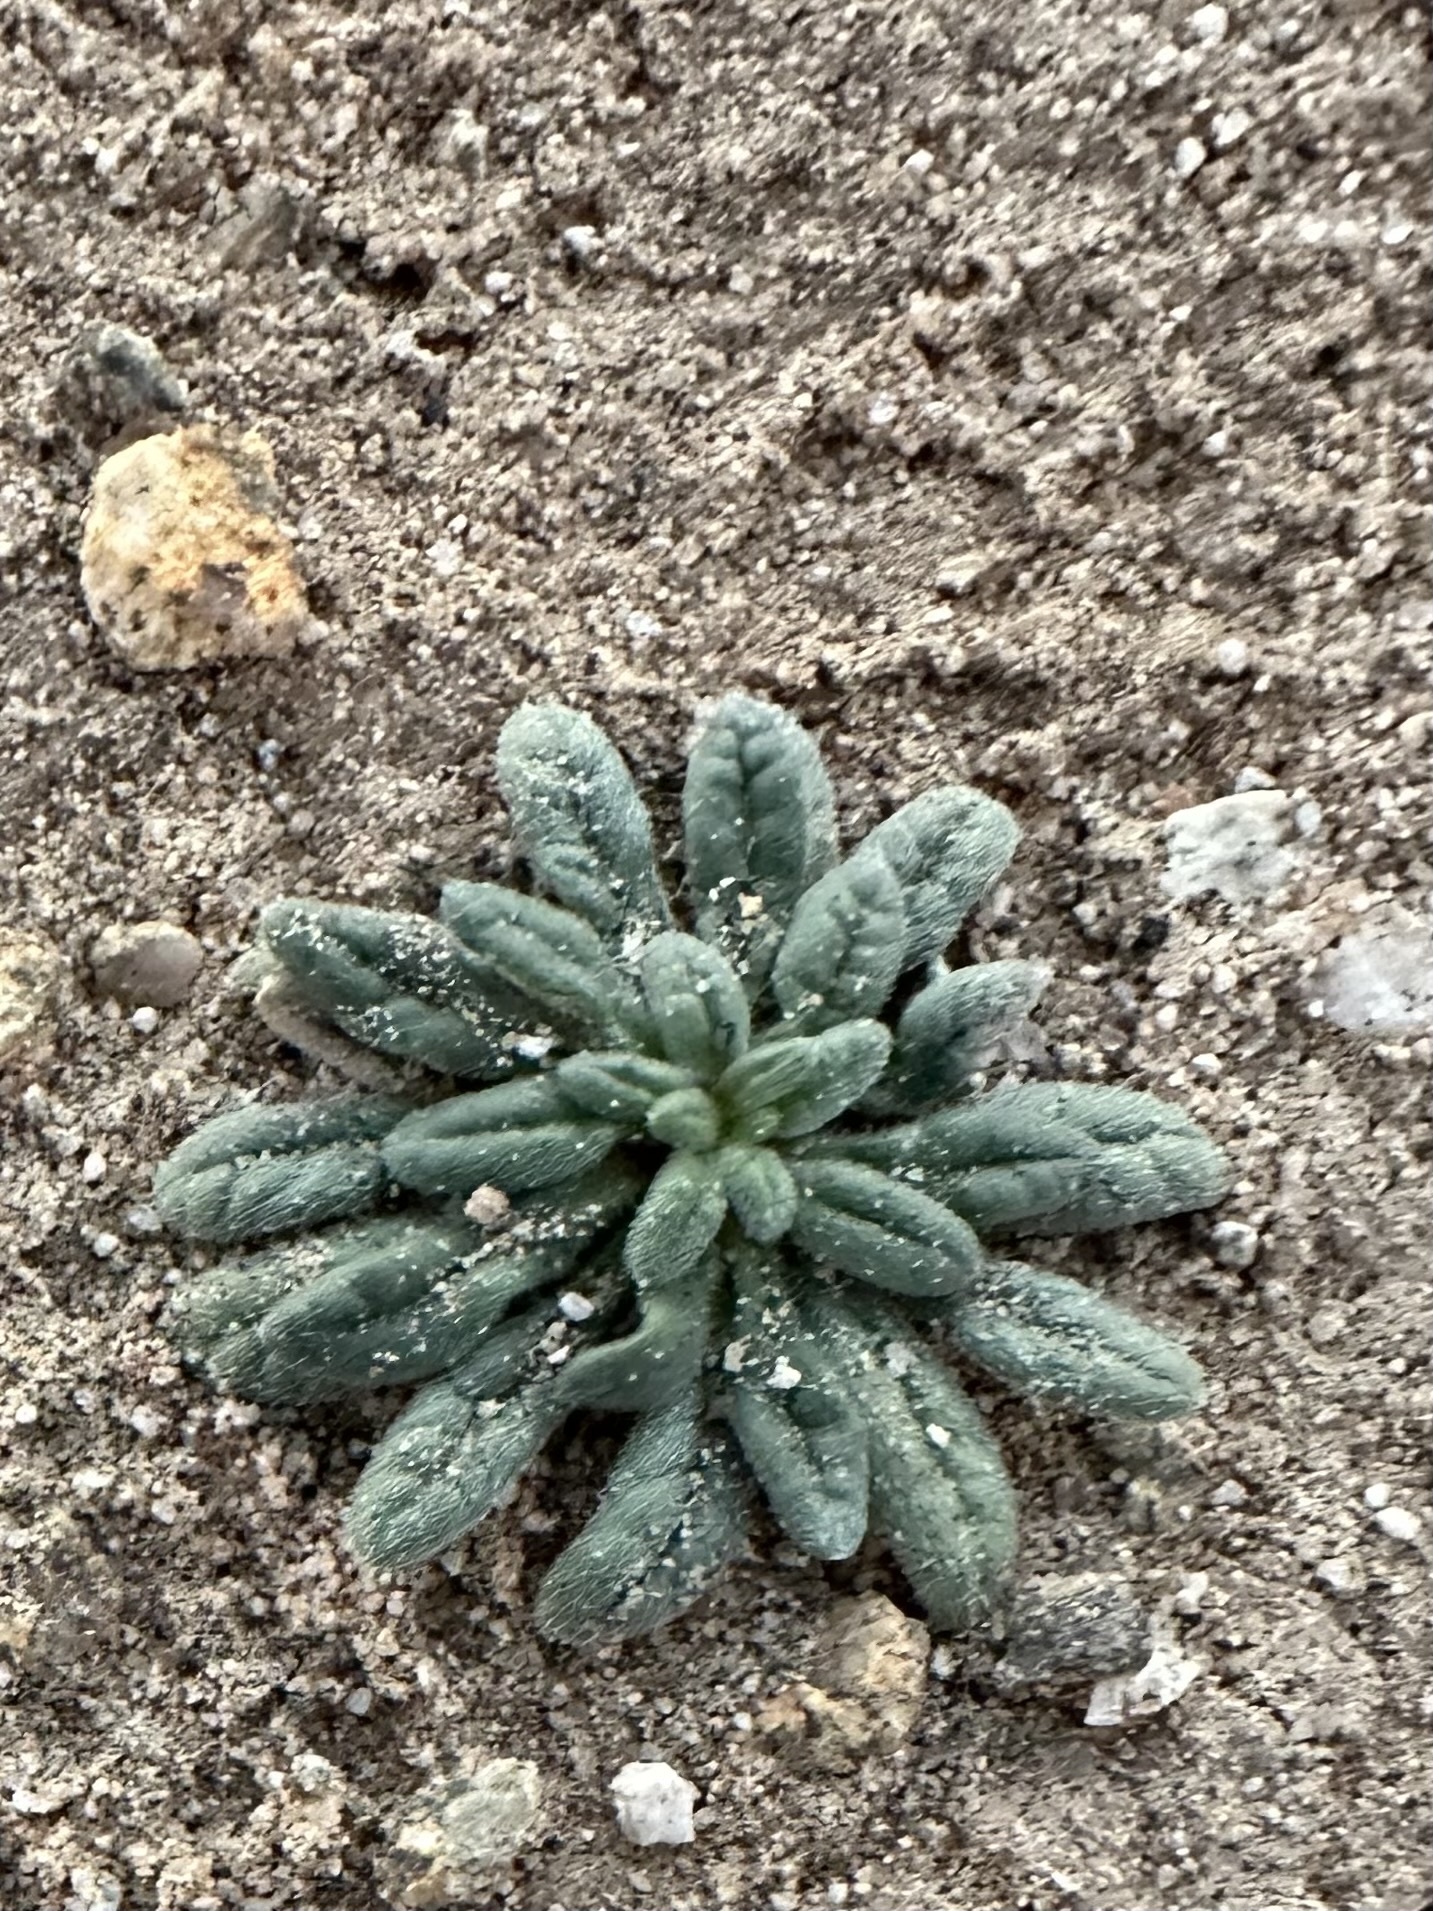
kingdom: Plantae
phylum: Tracheophyta
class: Magnoliopsida
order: Boraginales
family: Namaceae
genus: Nama
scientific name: Nama hispida
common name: Bristly nama
